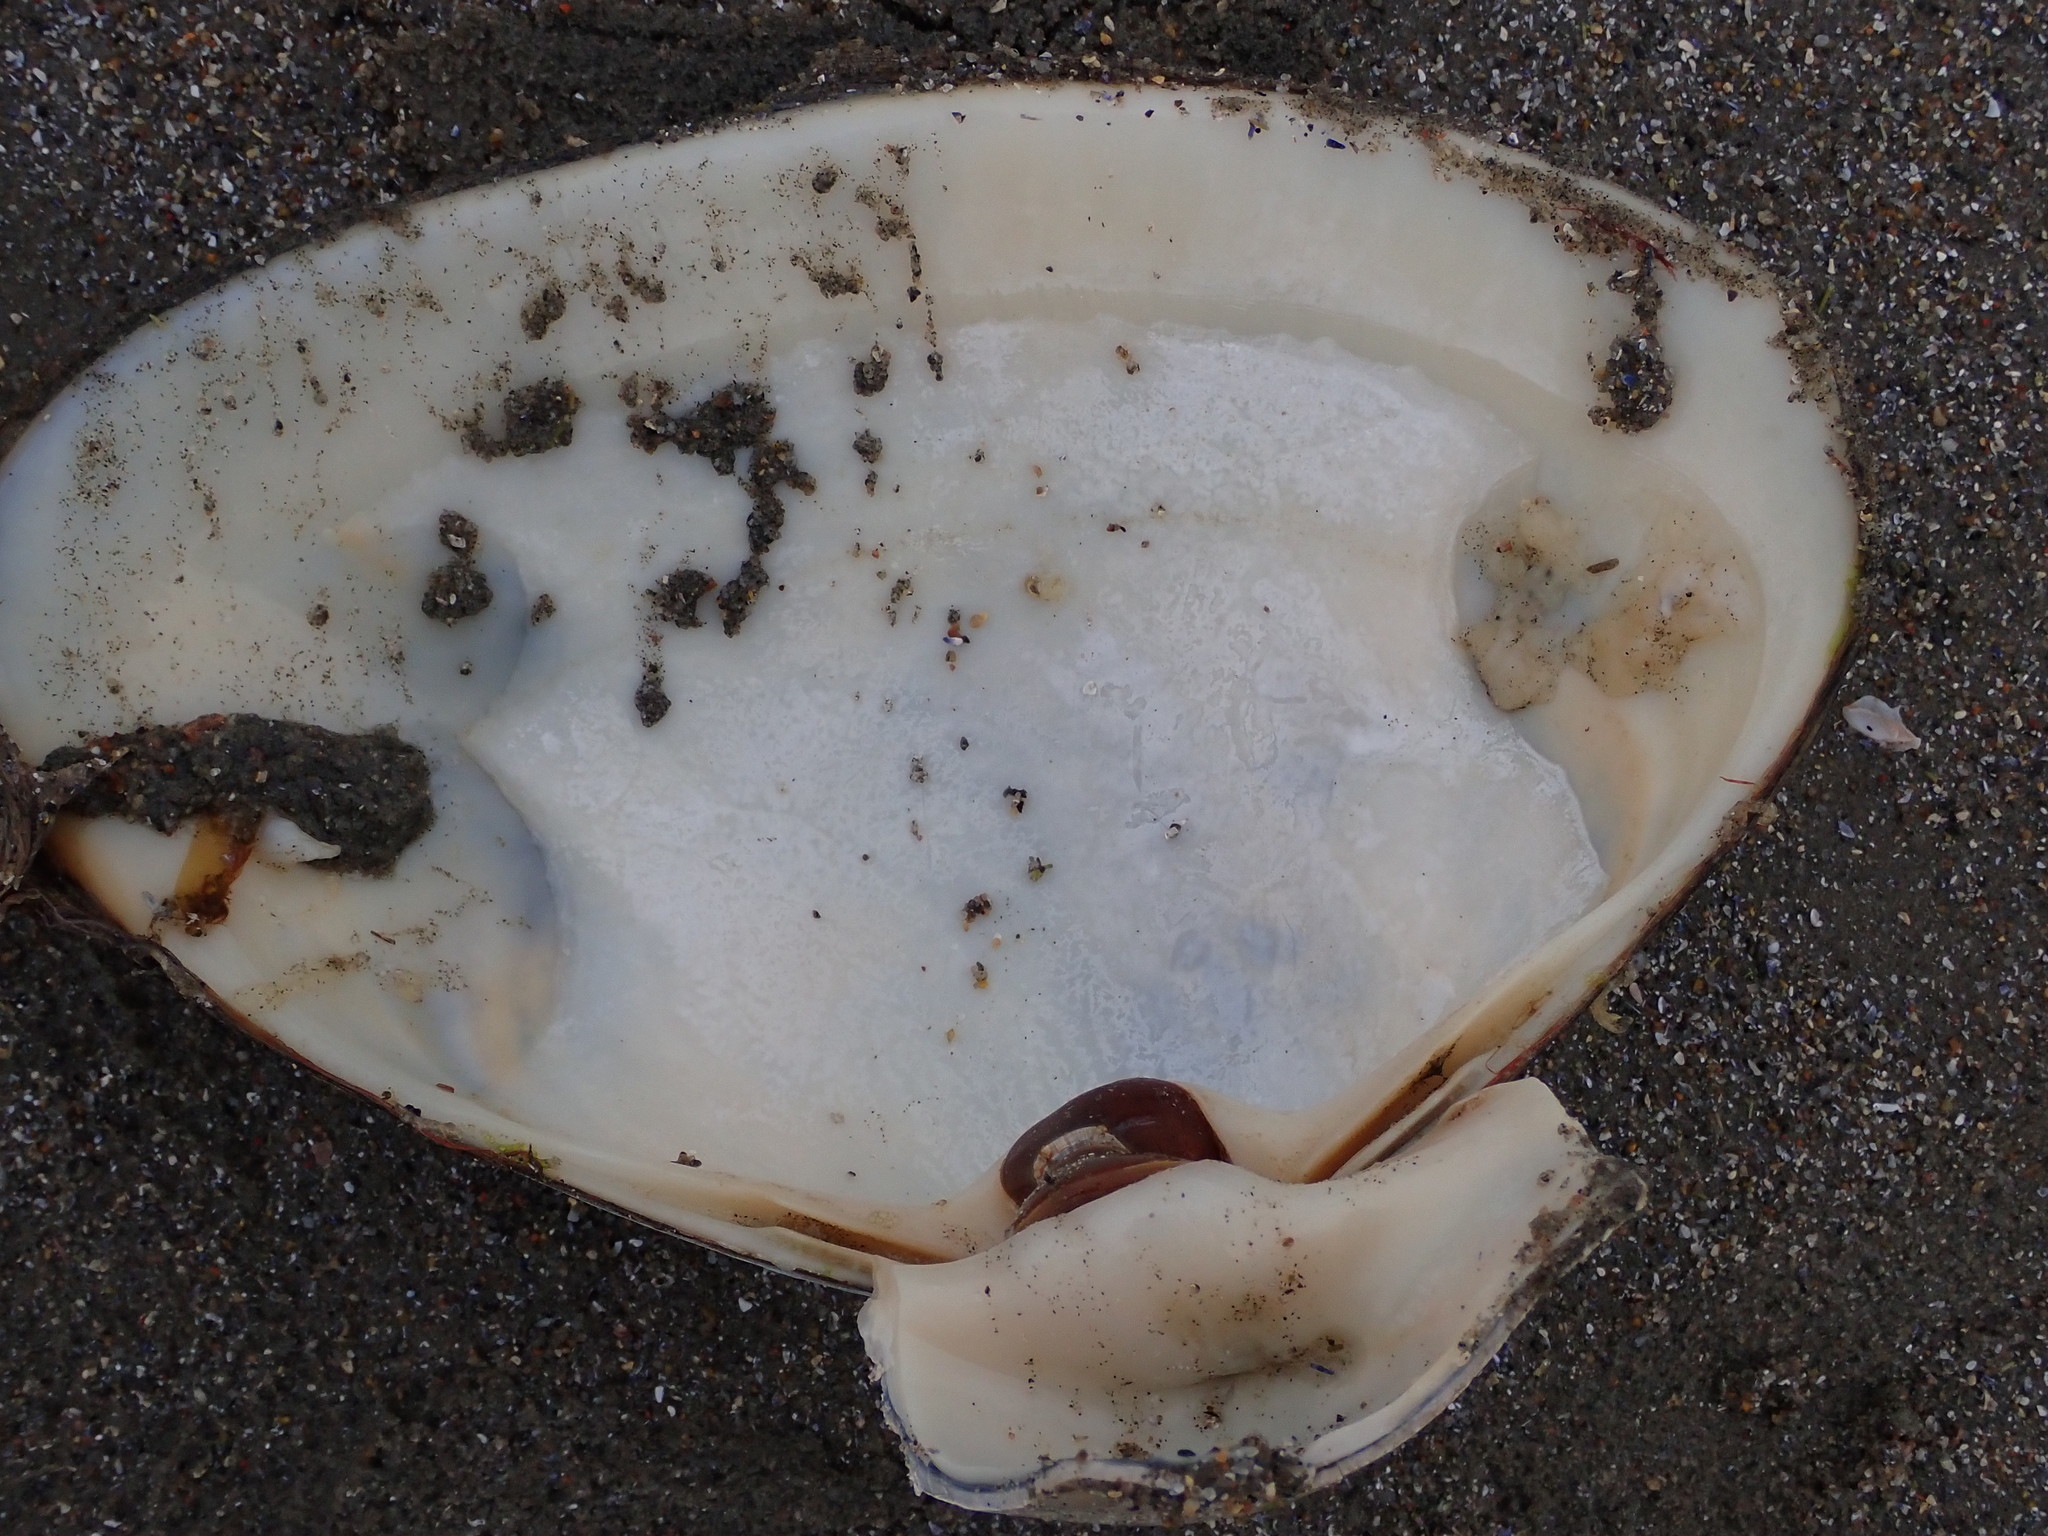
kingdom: Animalia
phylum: Mollusca
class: Bivalvia
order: Venerida
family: Mactridae
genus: Spisula
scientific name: Spisula solidissima
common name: Atlantic surf clam
